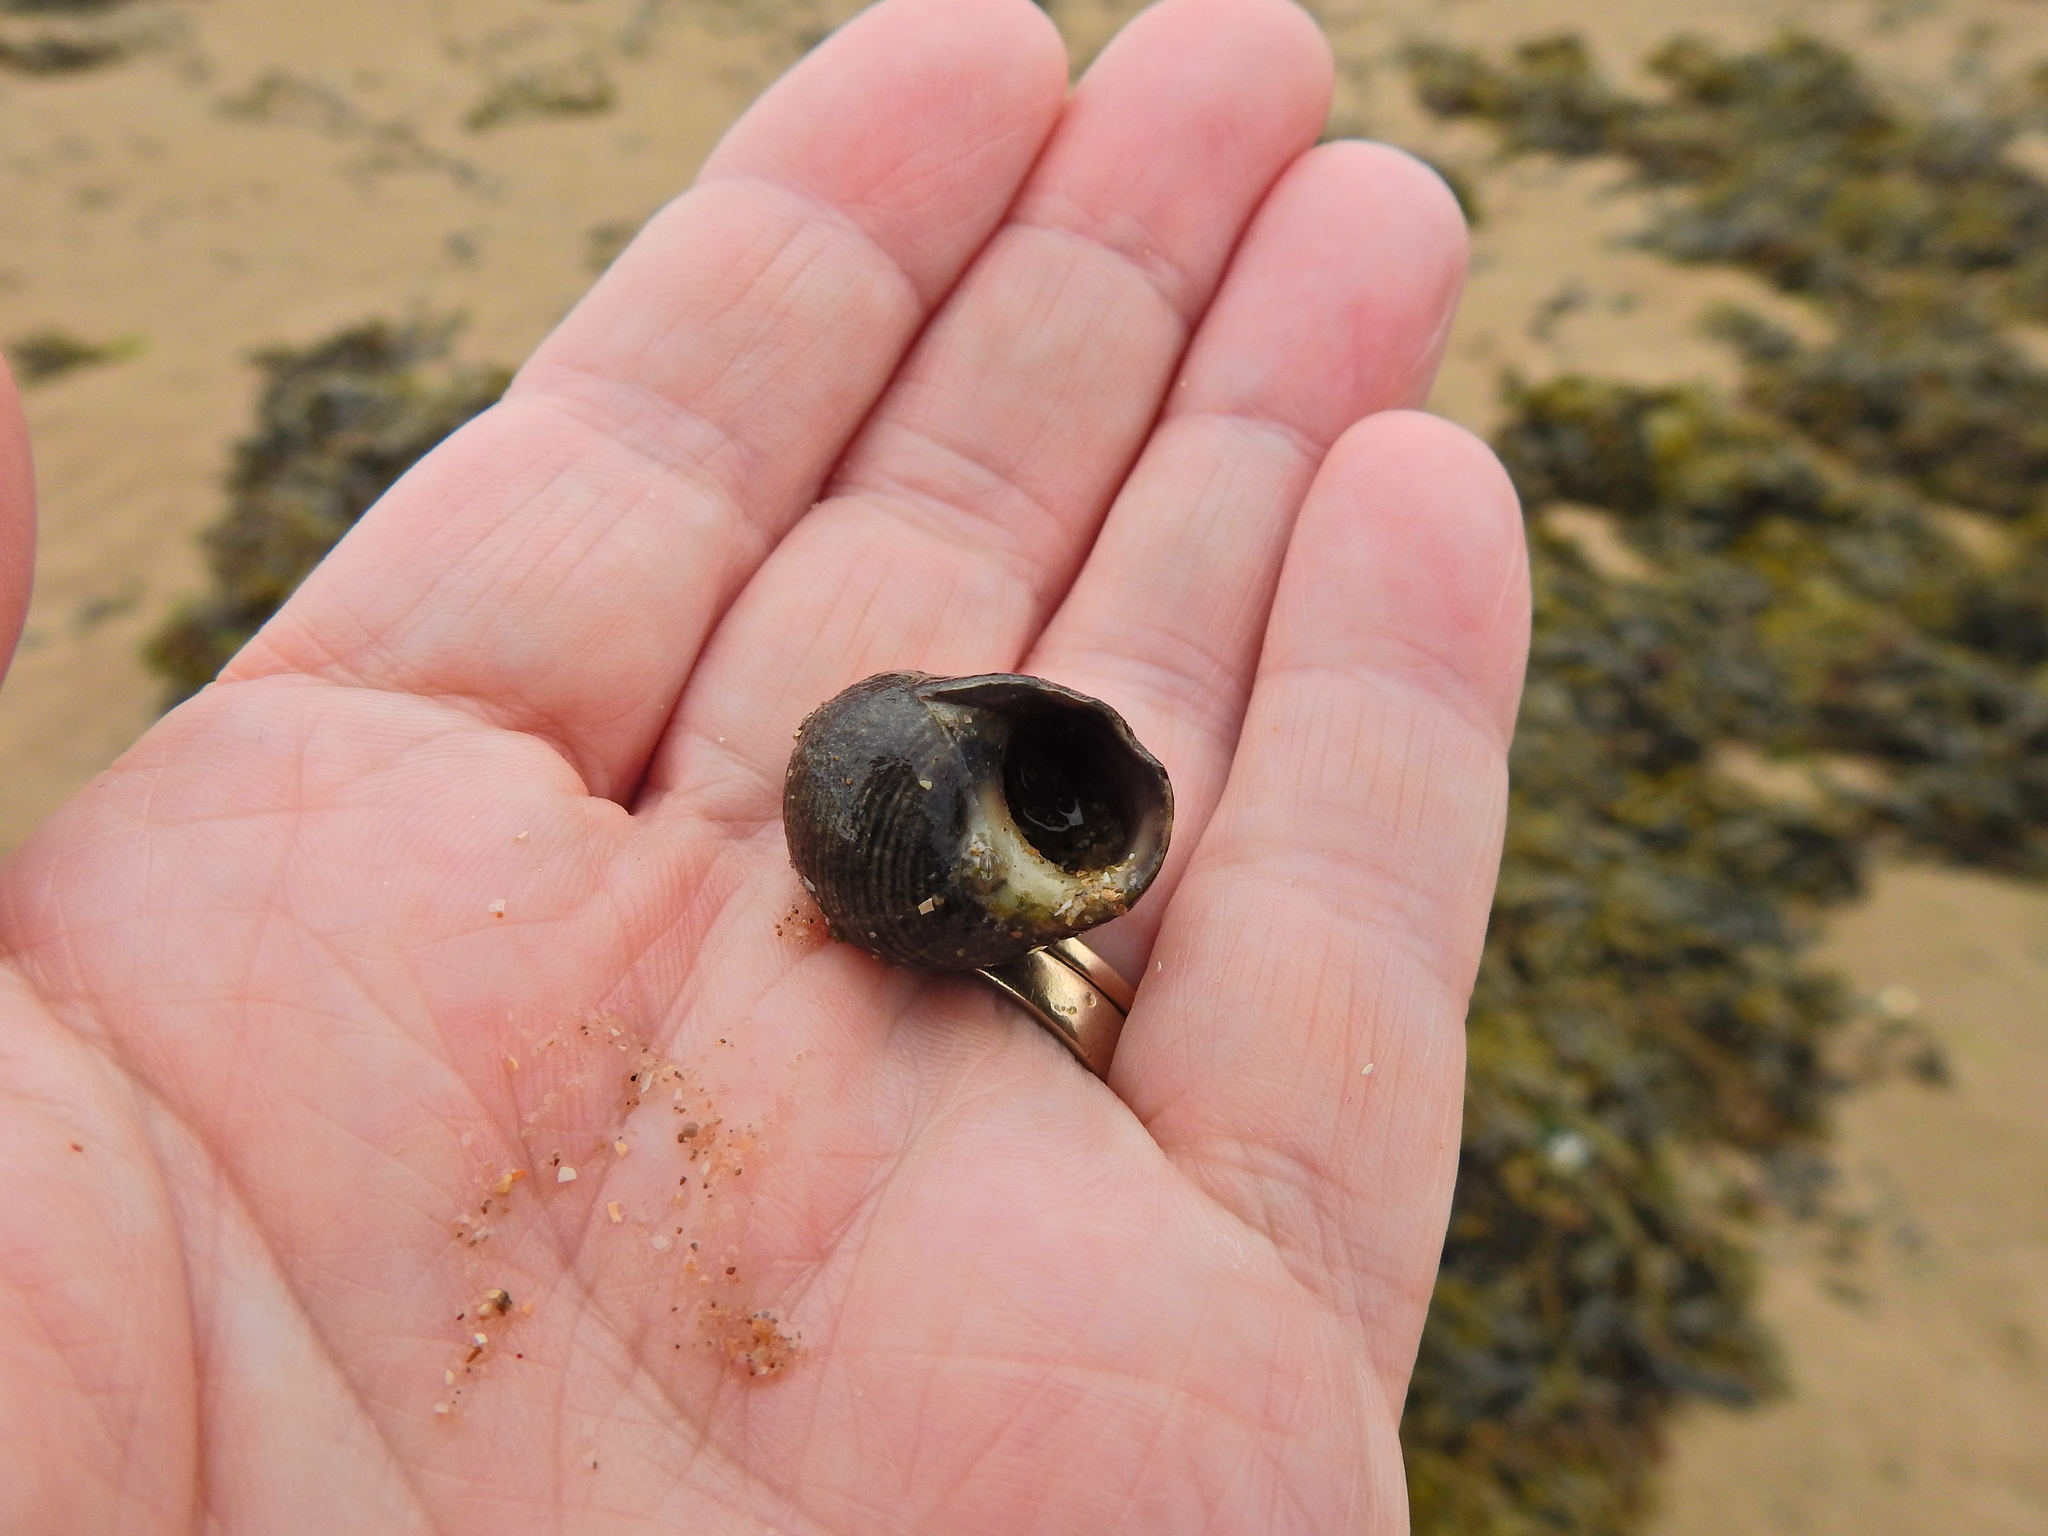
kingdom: Animalia
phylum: Mollusca
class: Gastropoda
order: Littorinimorpha
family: Littorinidae
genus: Littorina
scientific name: Littorina littorea
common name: Common periwinkle
